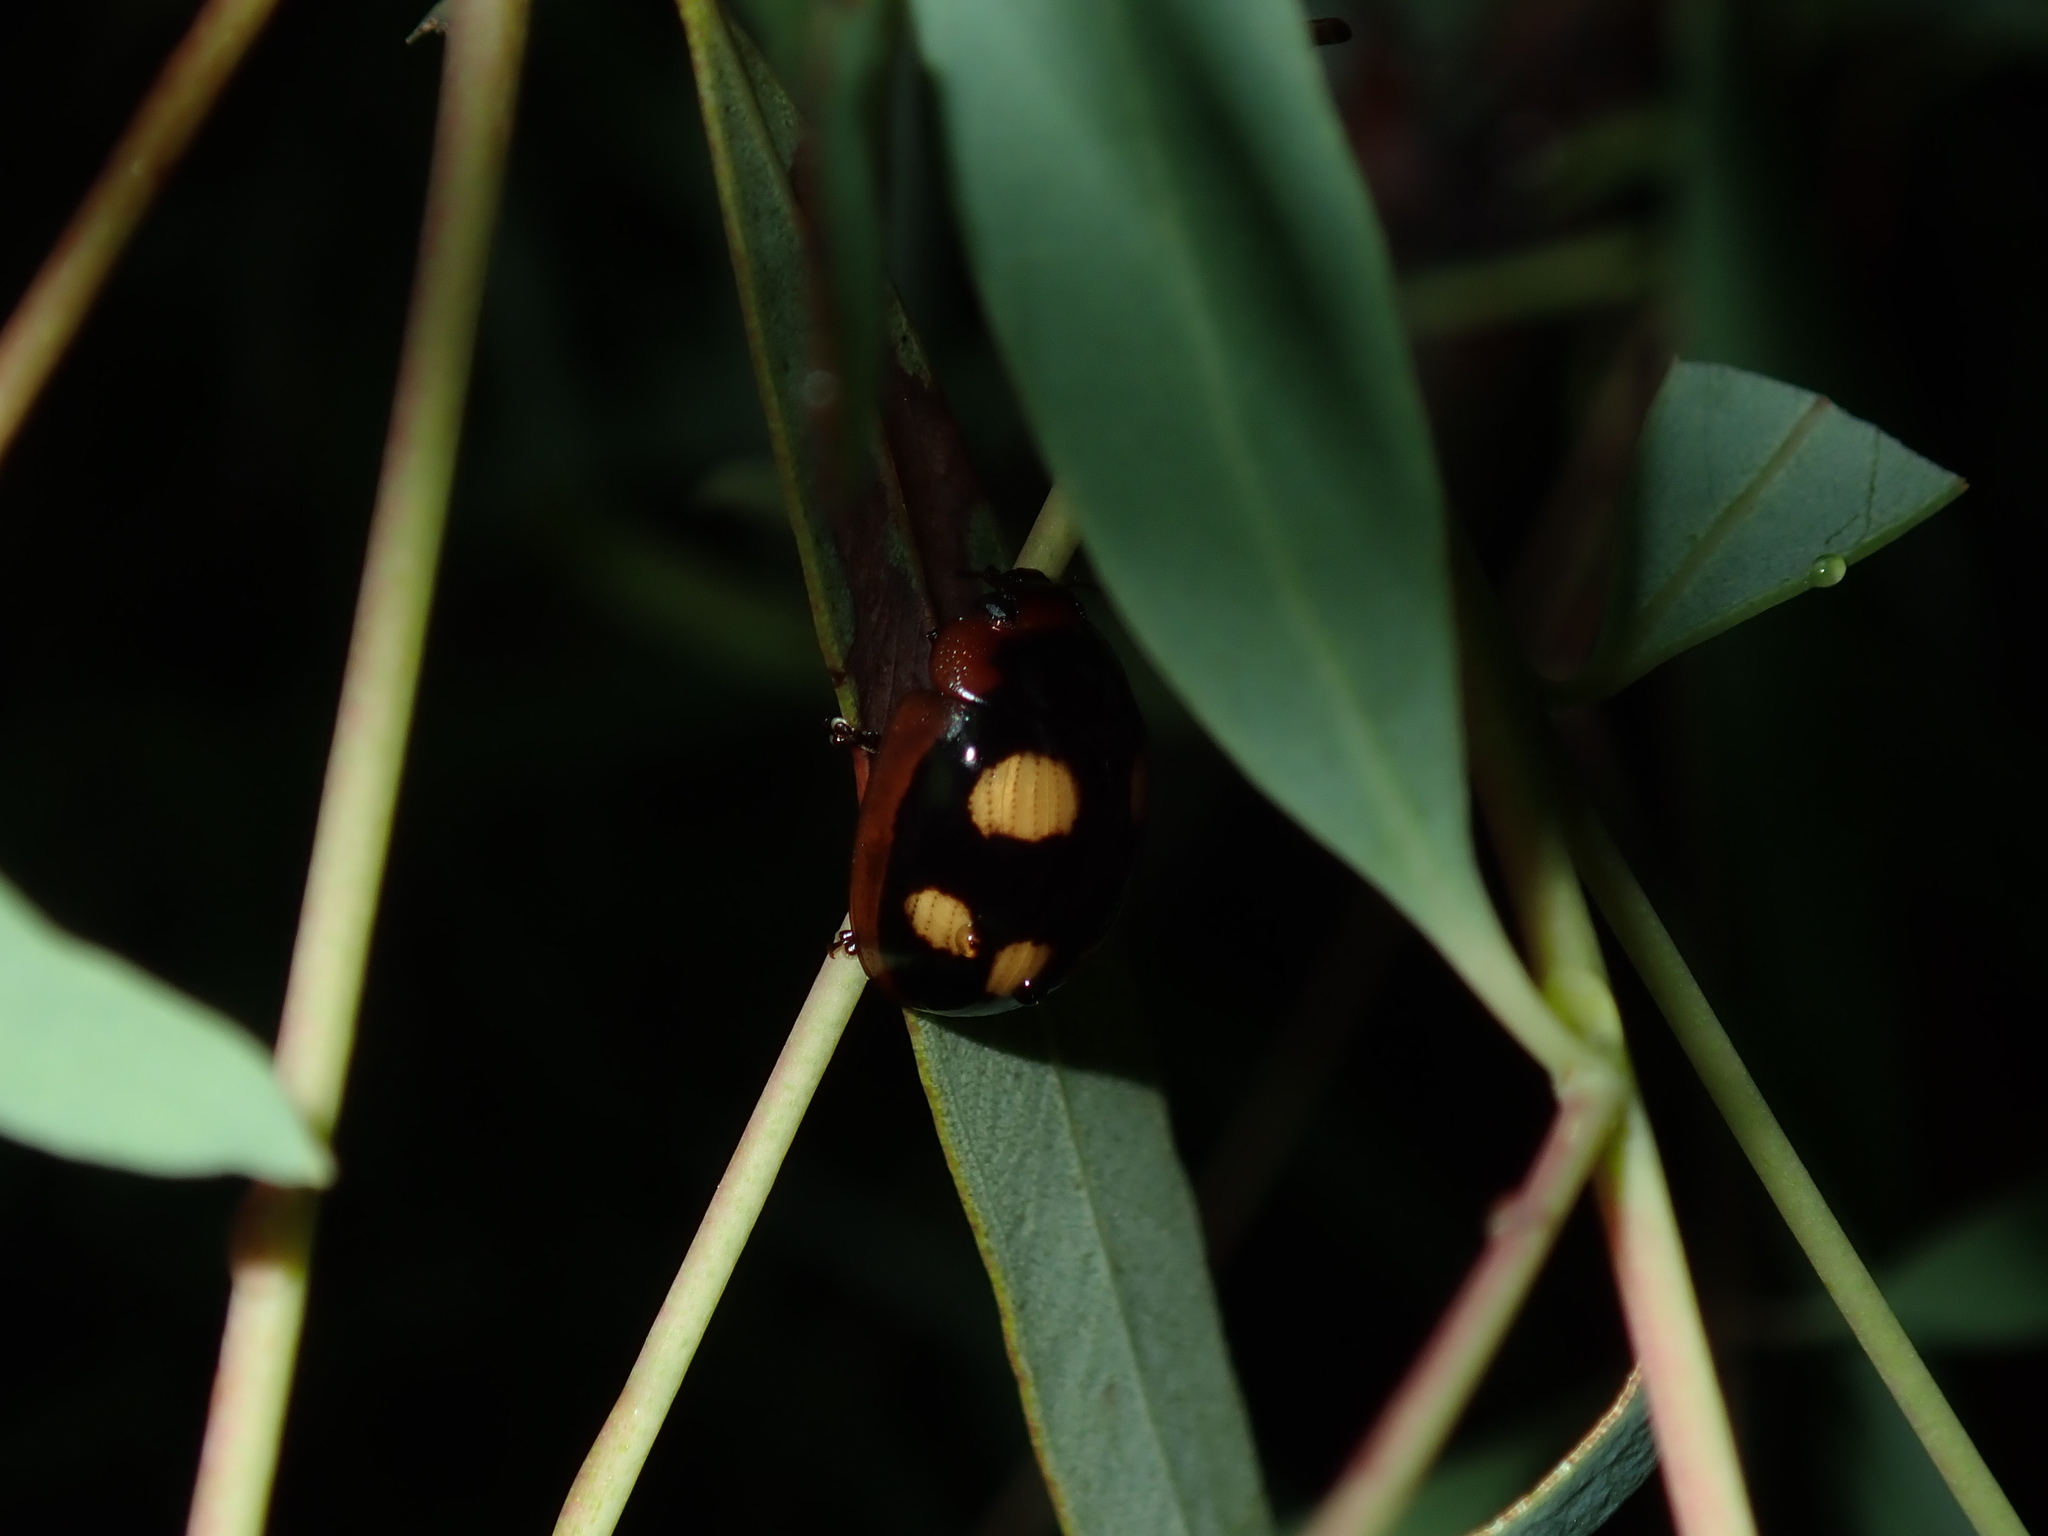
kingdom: Animalia
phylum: Arthropoda
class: Insecta
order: Coleoptera
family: Chrysomelidae
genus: Paropsisterna
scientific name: Paropsisterna beata
